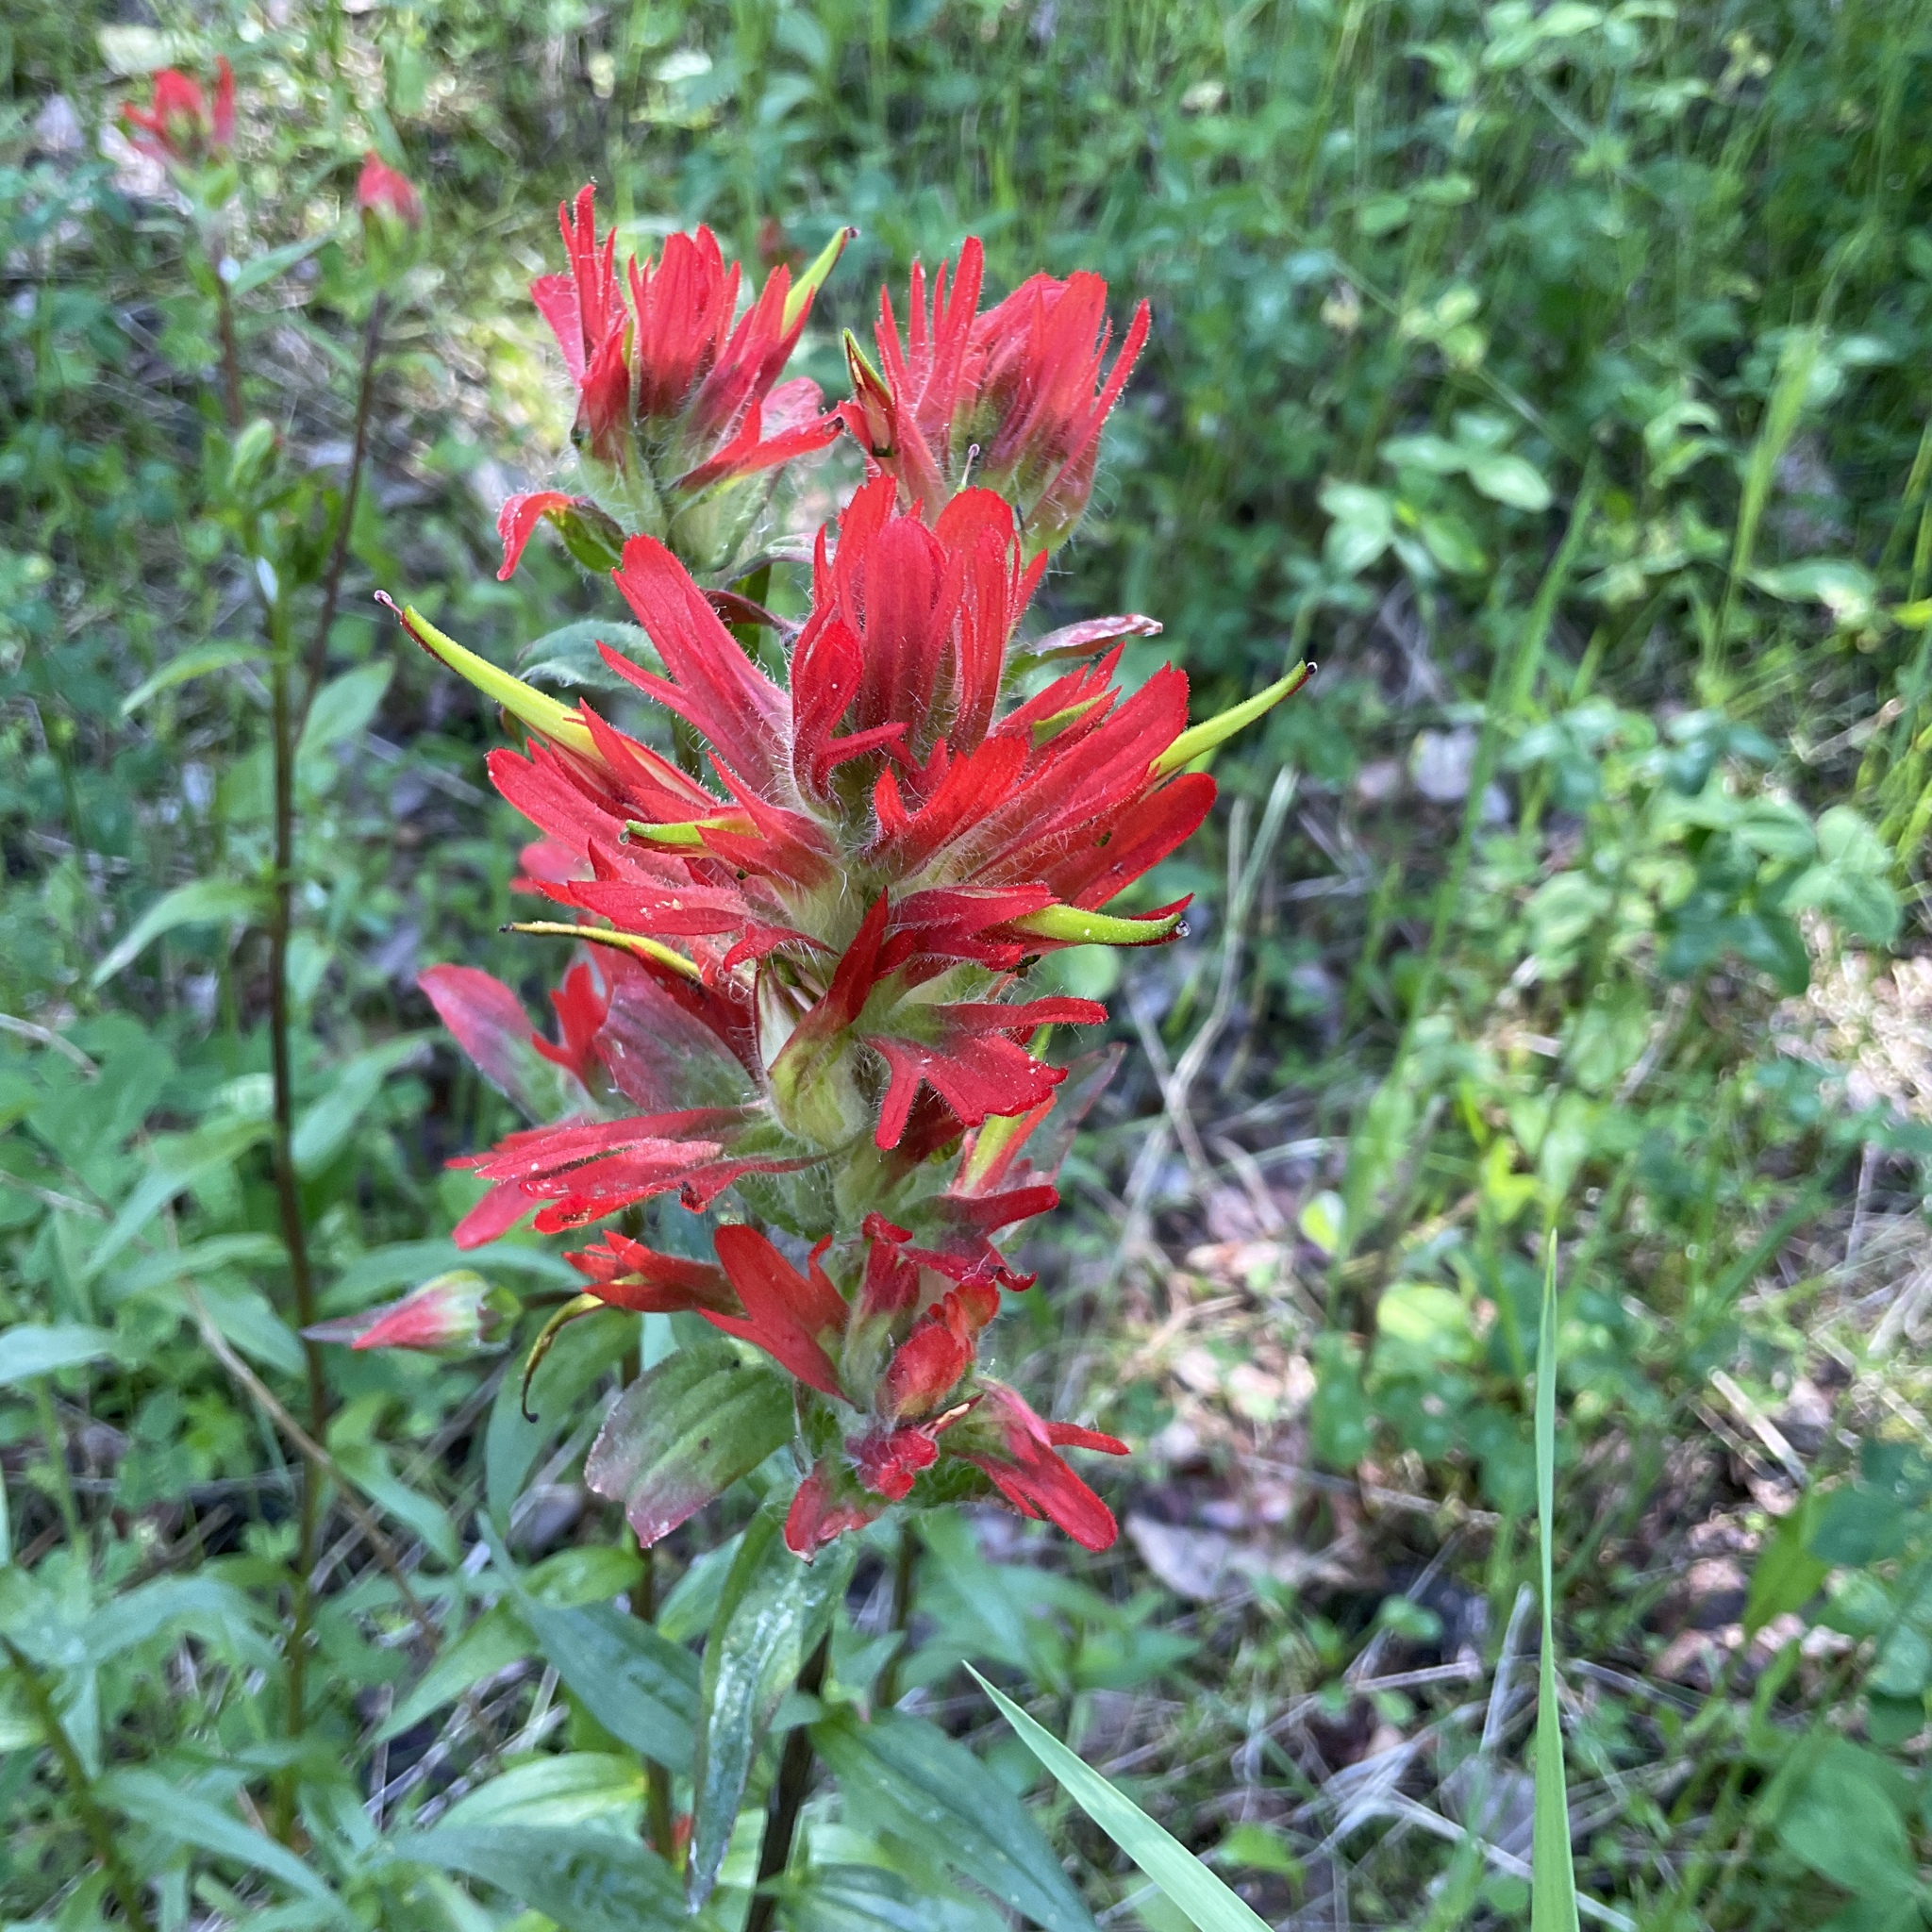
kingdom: Plantae
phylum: Tracheophyta
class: Magnoliopsida
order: Lamiales
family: Orobanchaceae
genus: Castilleja
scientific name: Castilleja miniata
